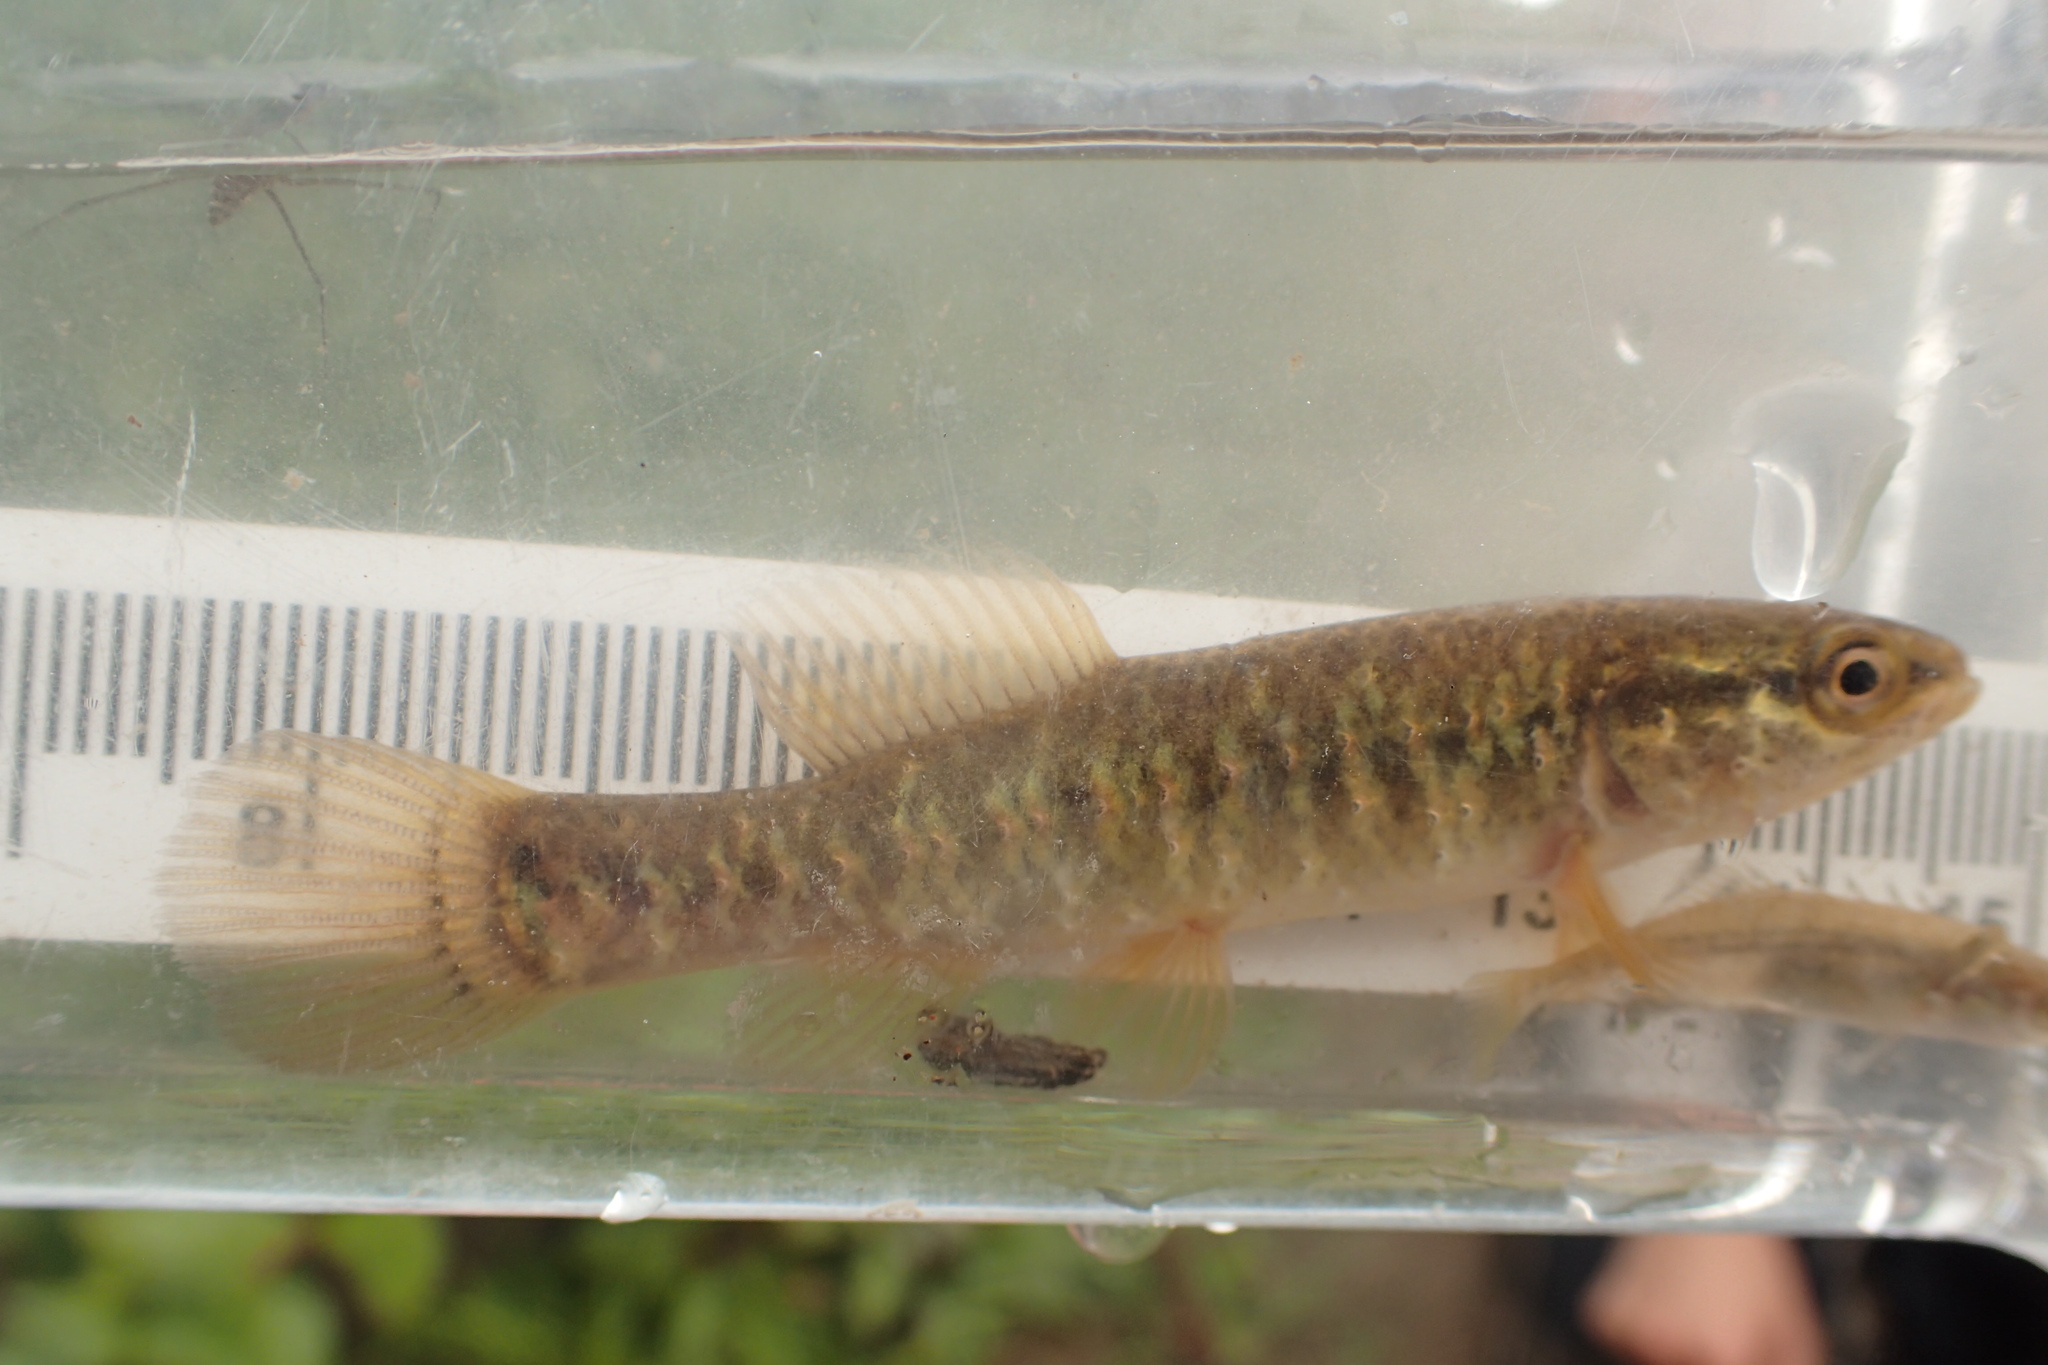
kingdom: Animalia
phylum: Chordata
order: Esociformes
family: Umbridae
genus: Umbra
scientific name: Umbra limi
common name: Central mudminnow
